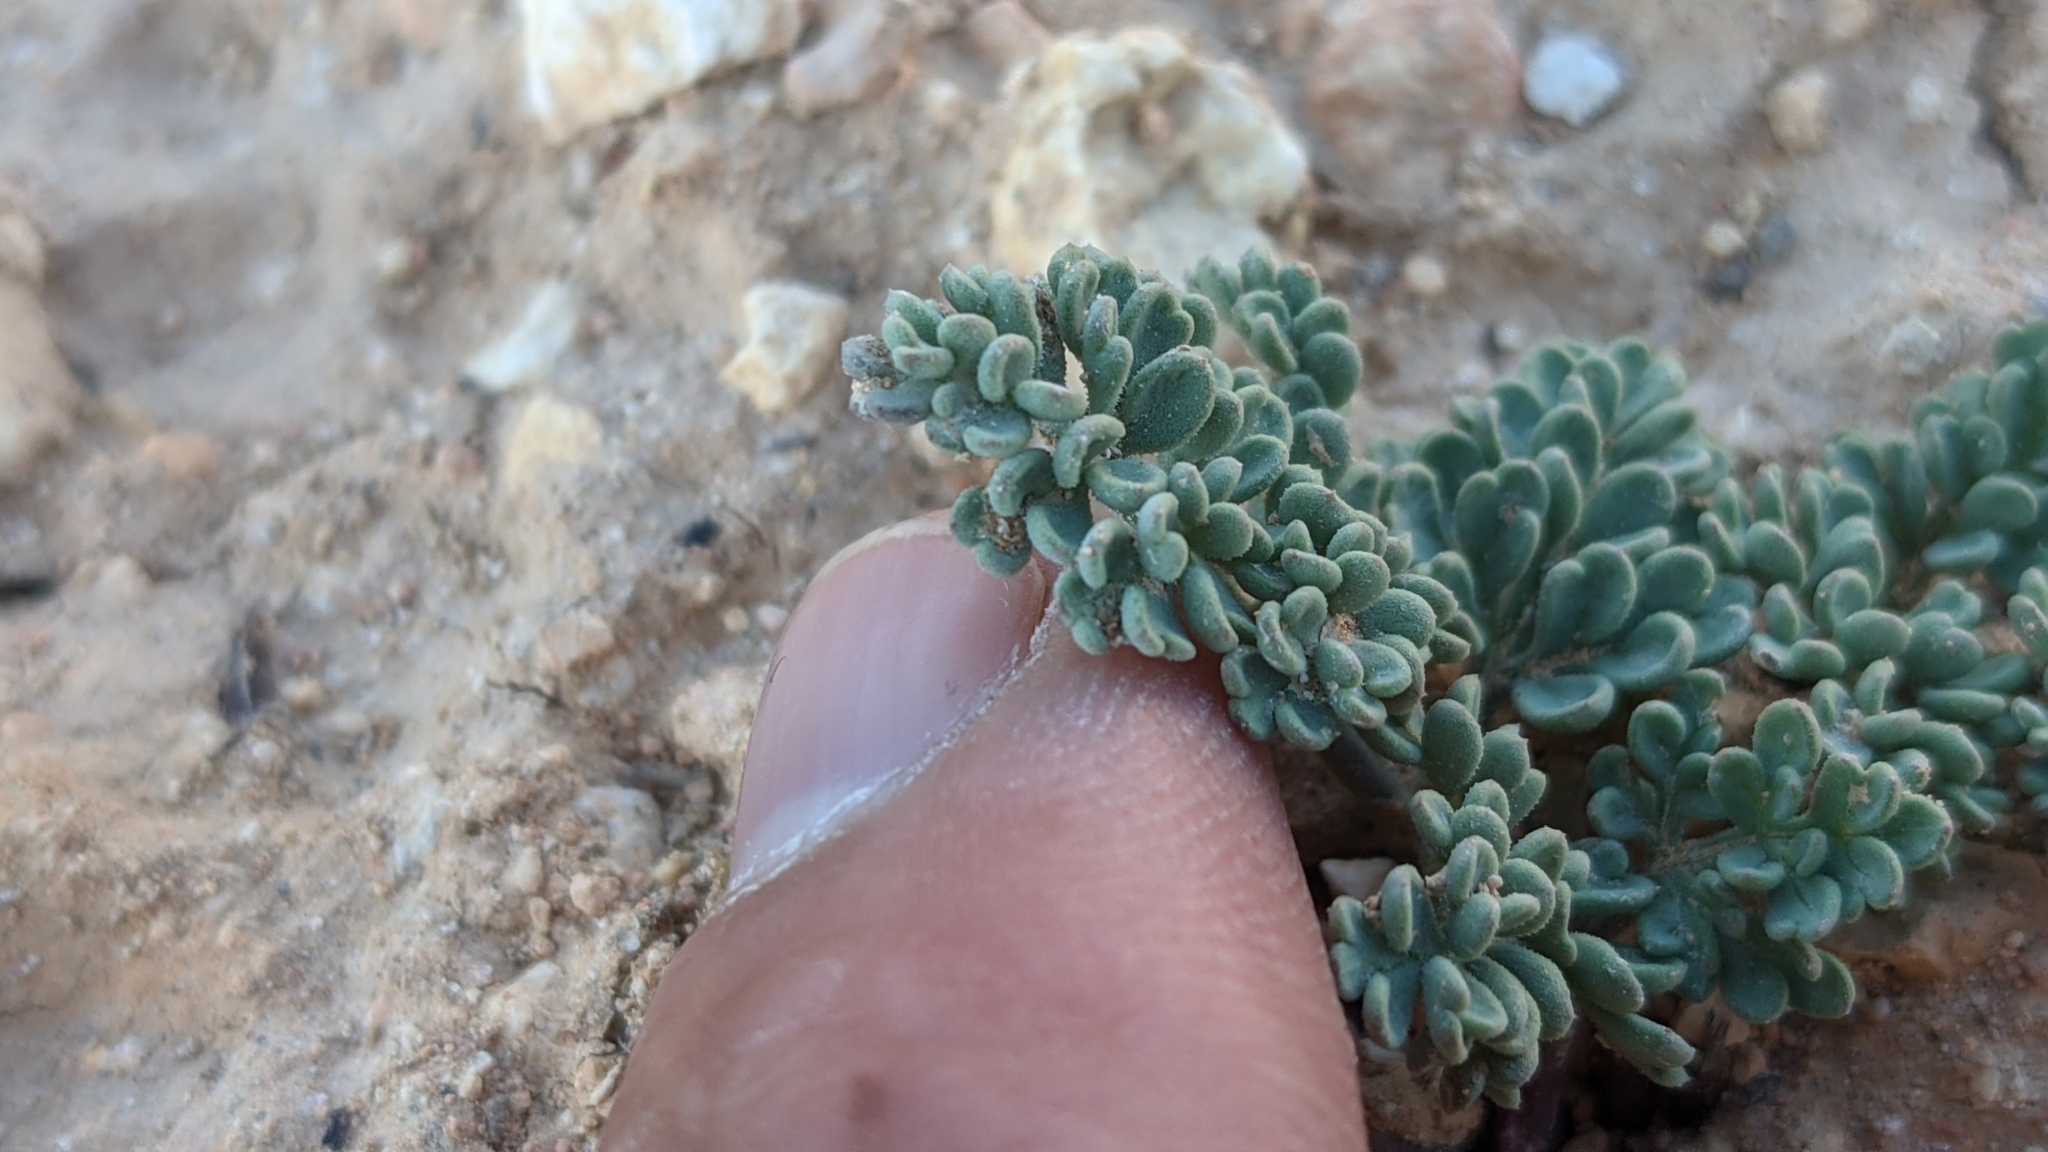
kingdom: Plantae
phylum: Tracheophyta
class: Magnoliopsida
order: Apiales
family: Apiaceae
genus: Aulospermum
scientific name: Aulospermum minimum
